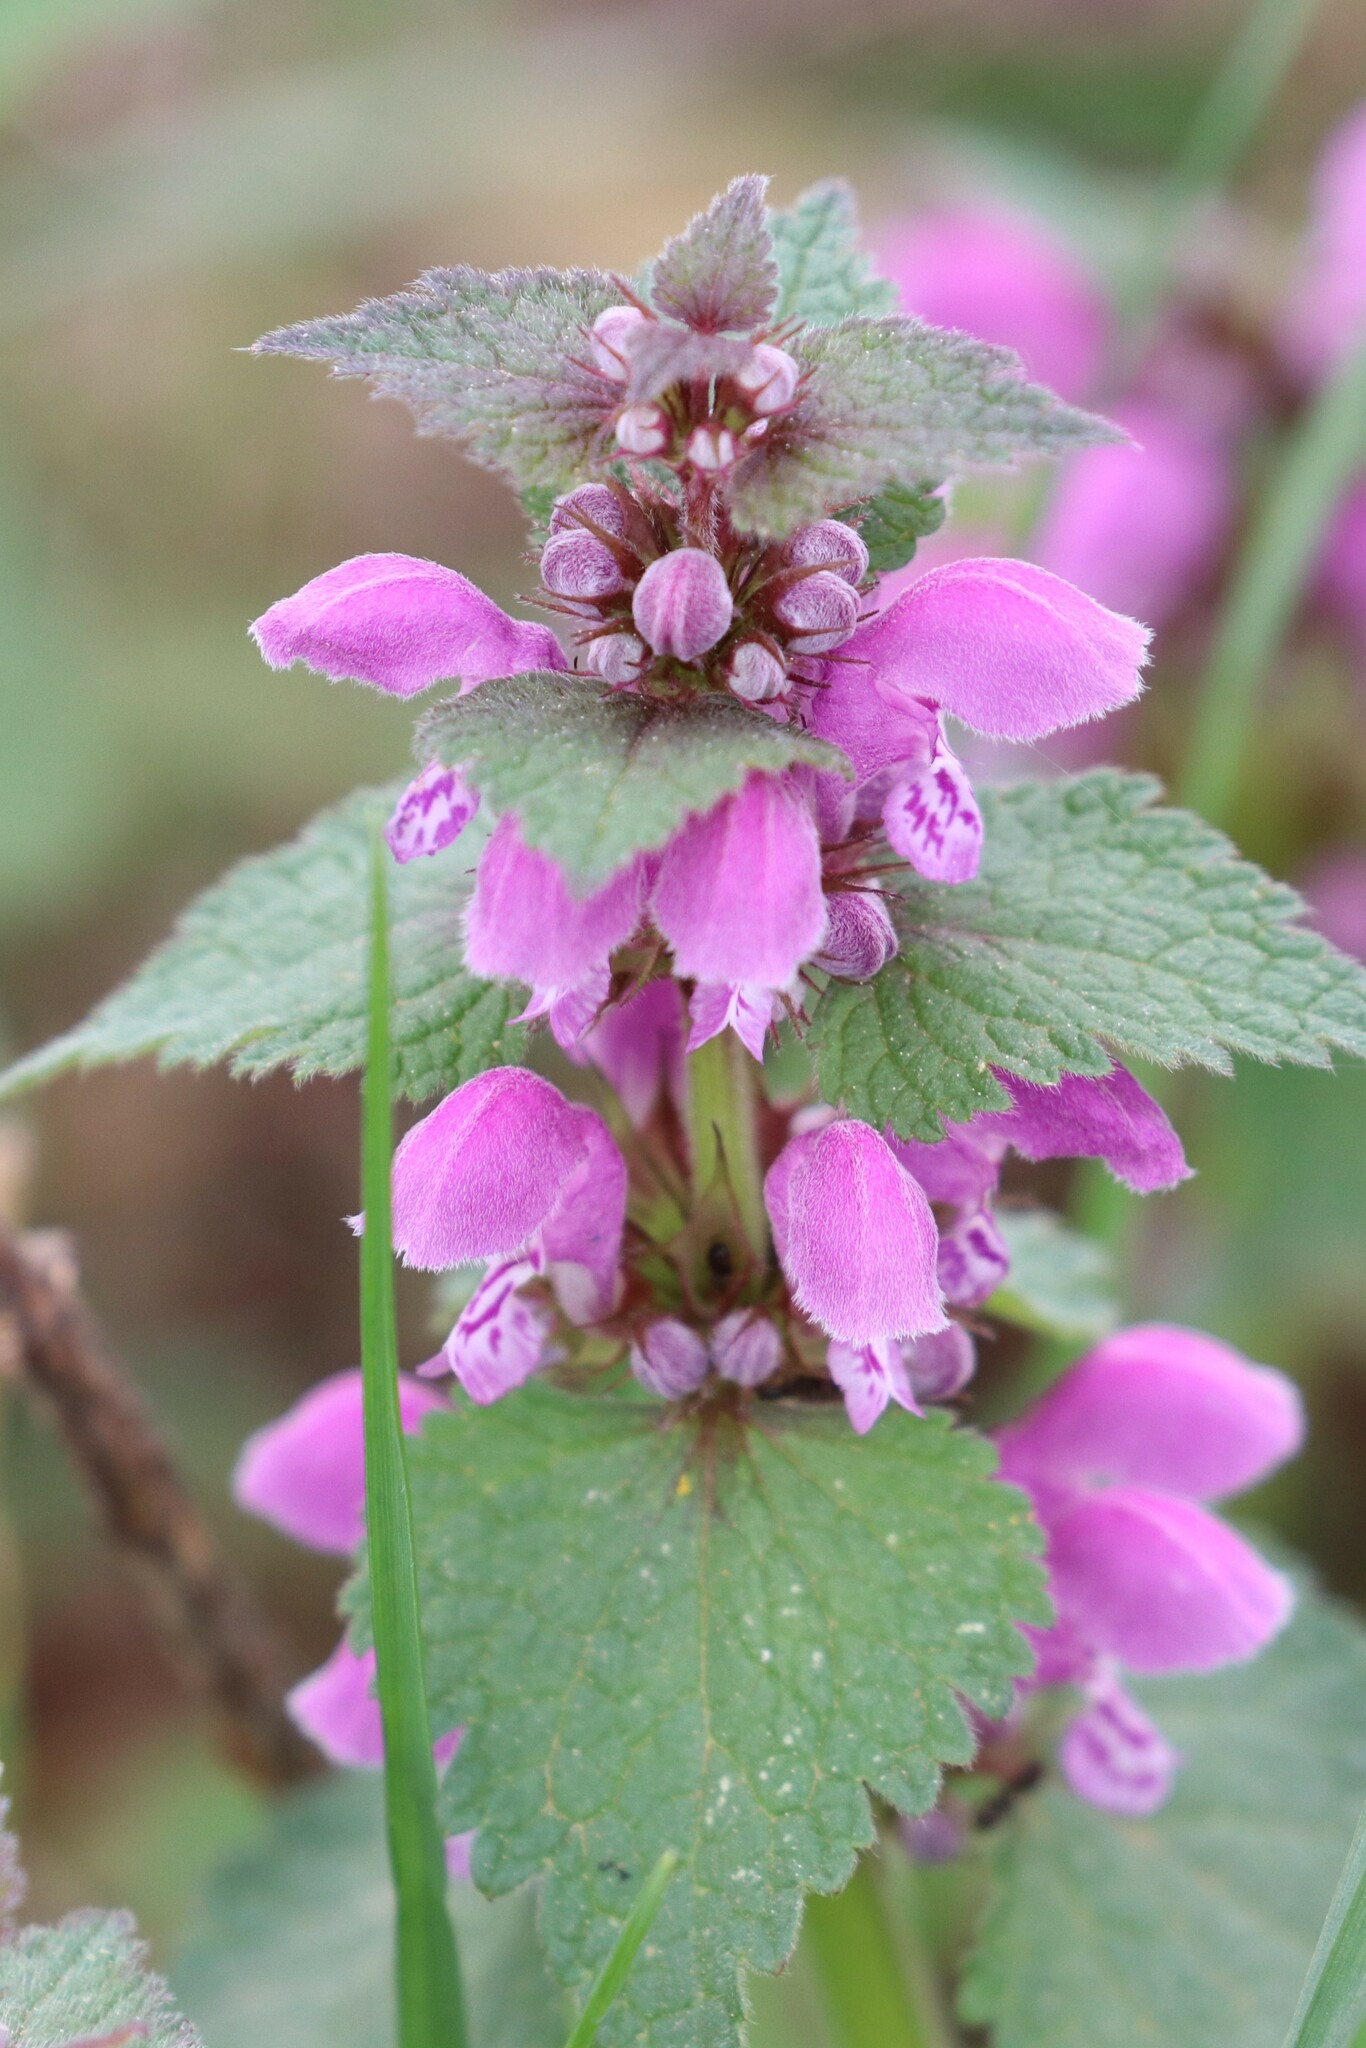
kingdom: Plantae
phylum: Tracheophyta
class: Magnoliopsida
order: Lamiales
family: Lamiaceae
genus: Lamium
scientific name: Lamium maculatum
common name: Spotted dead-nettle
